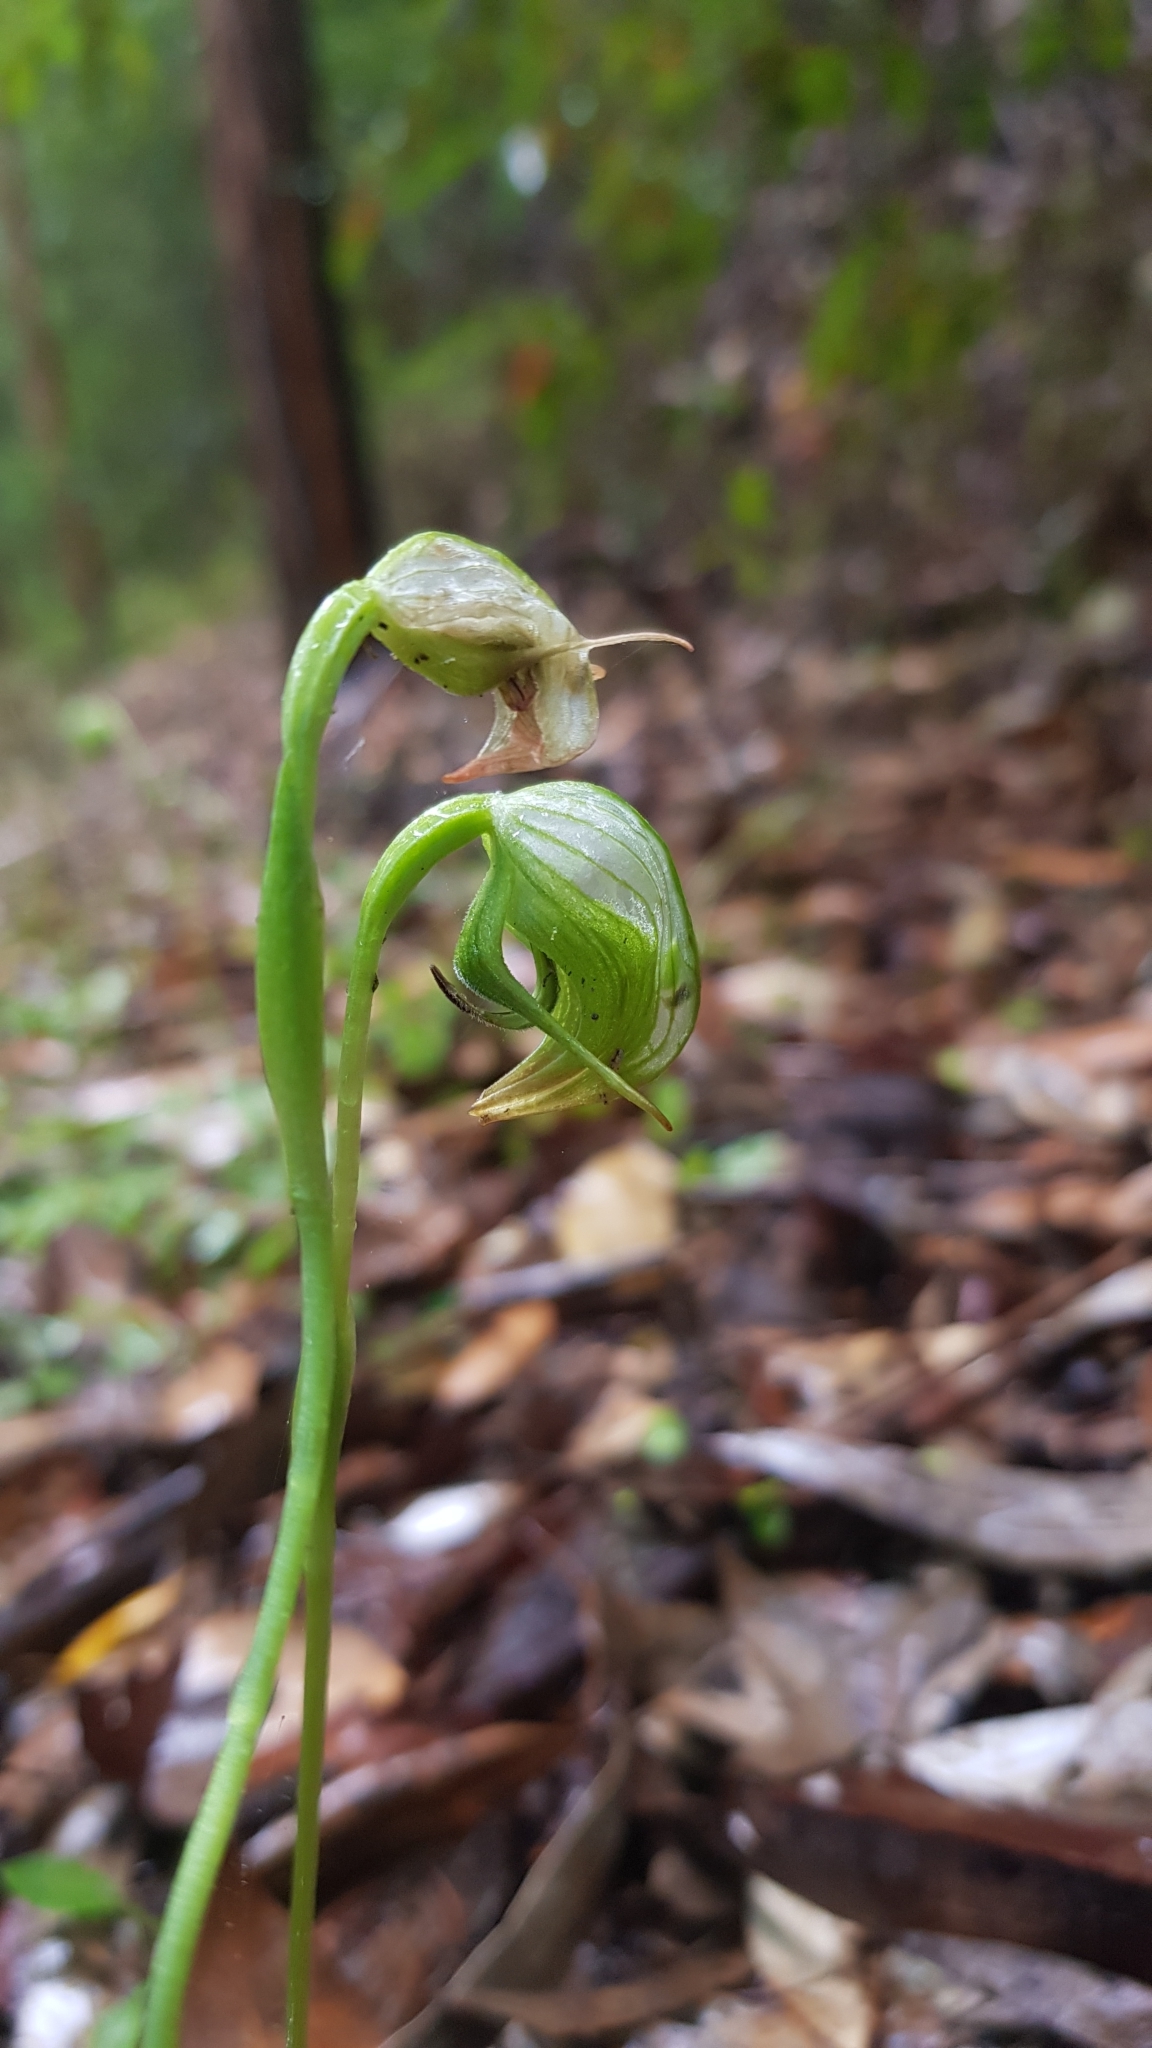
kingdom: Plantae
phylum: Tracheophyta
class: Liliopsida
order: Asparagales
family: Orchidaceae
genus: Pterostylis
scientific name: Pterostylis nutans
